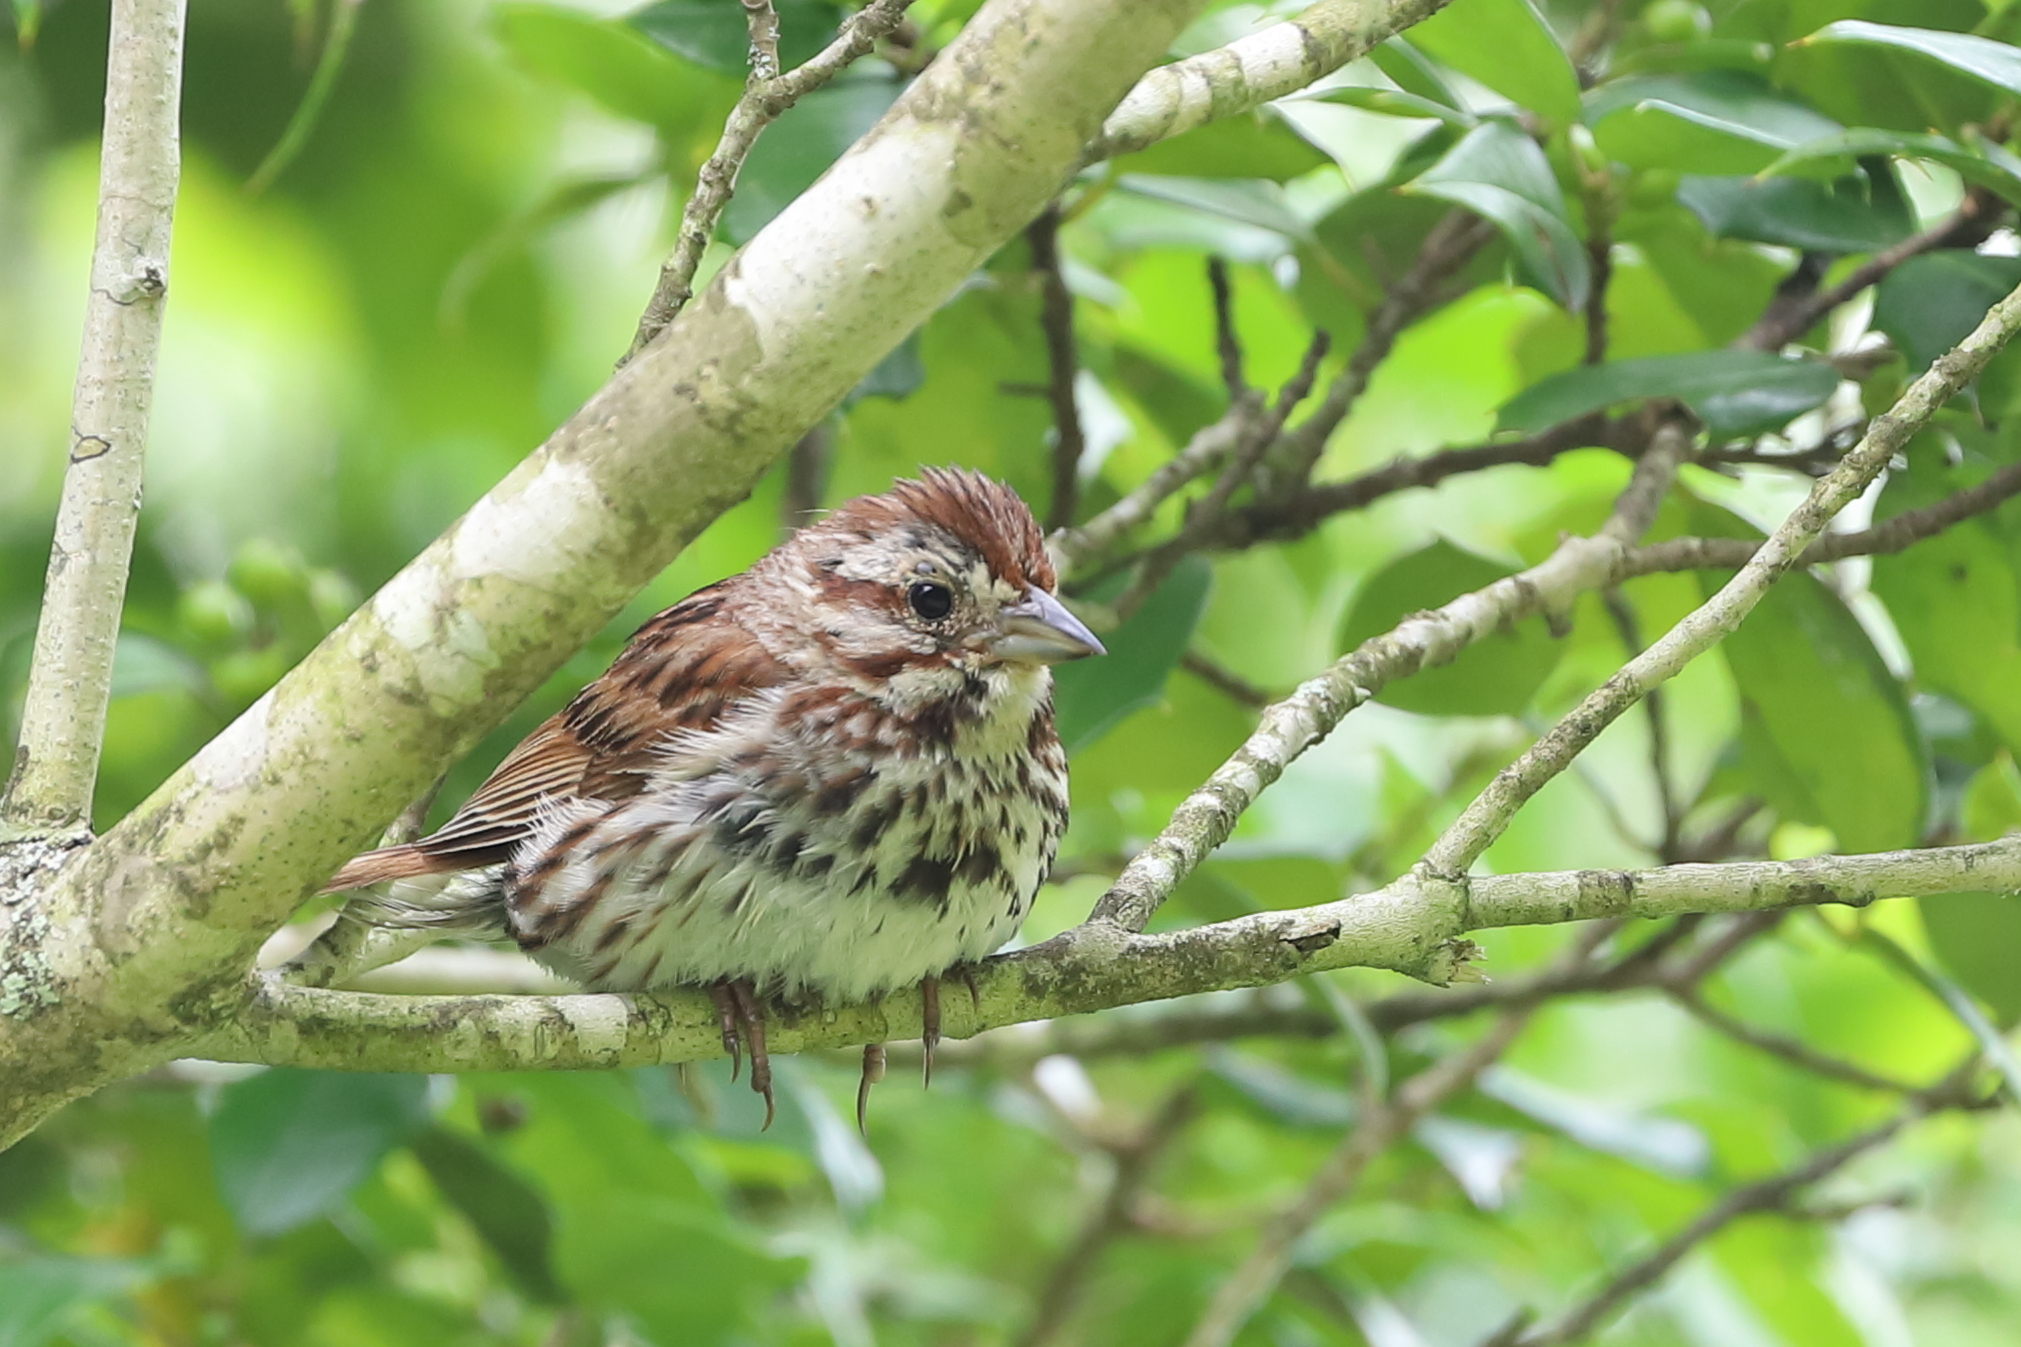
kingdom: Animalia
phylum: Chordata
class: Aves
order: Passeriformes
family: Passerellidae
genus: Melospiza
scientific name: Melospiza melodia
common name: Song sparrow
